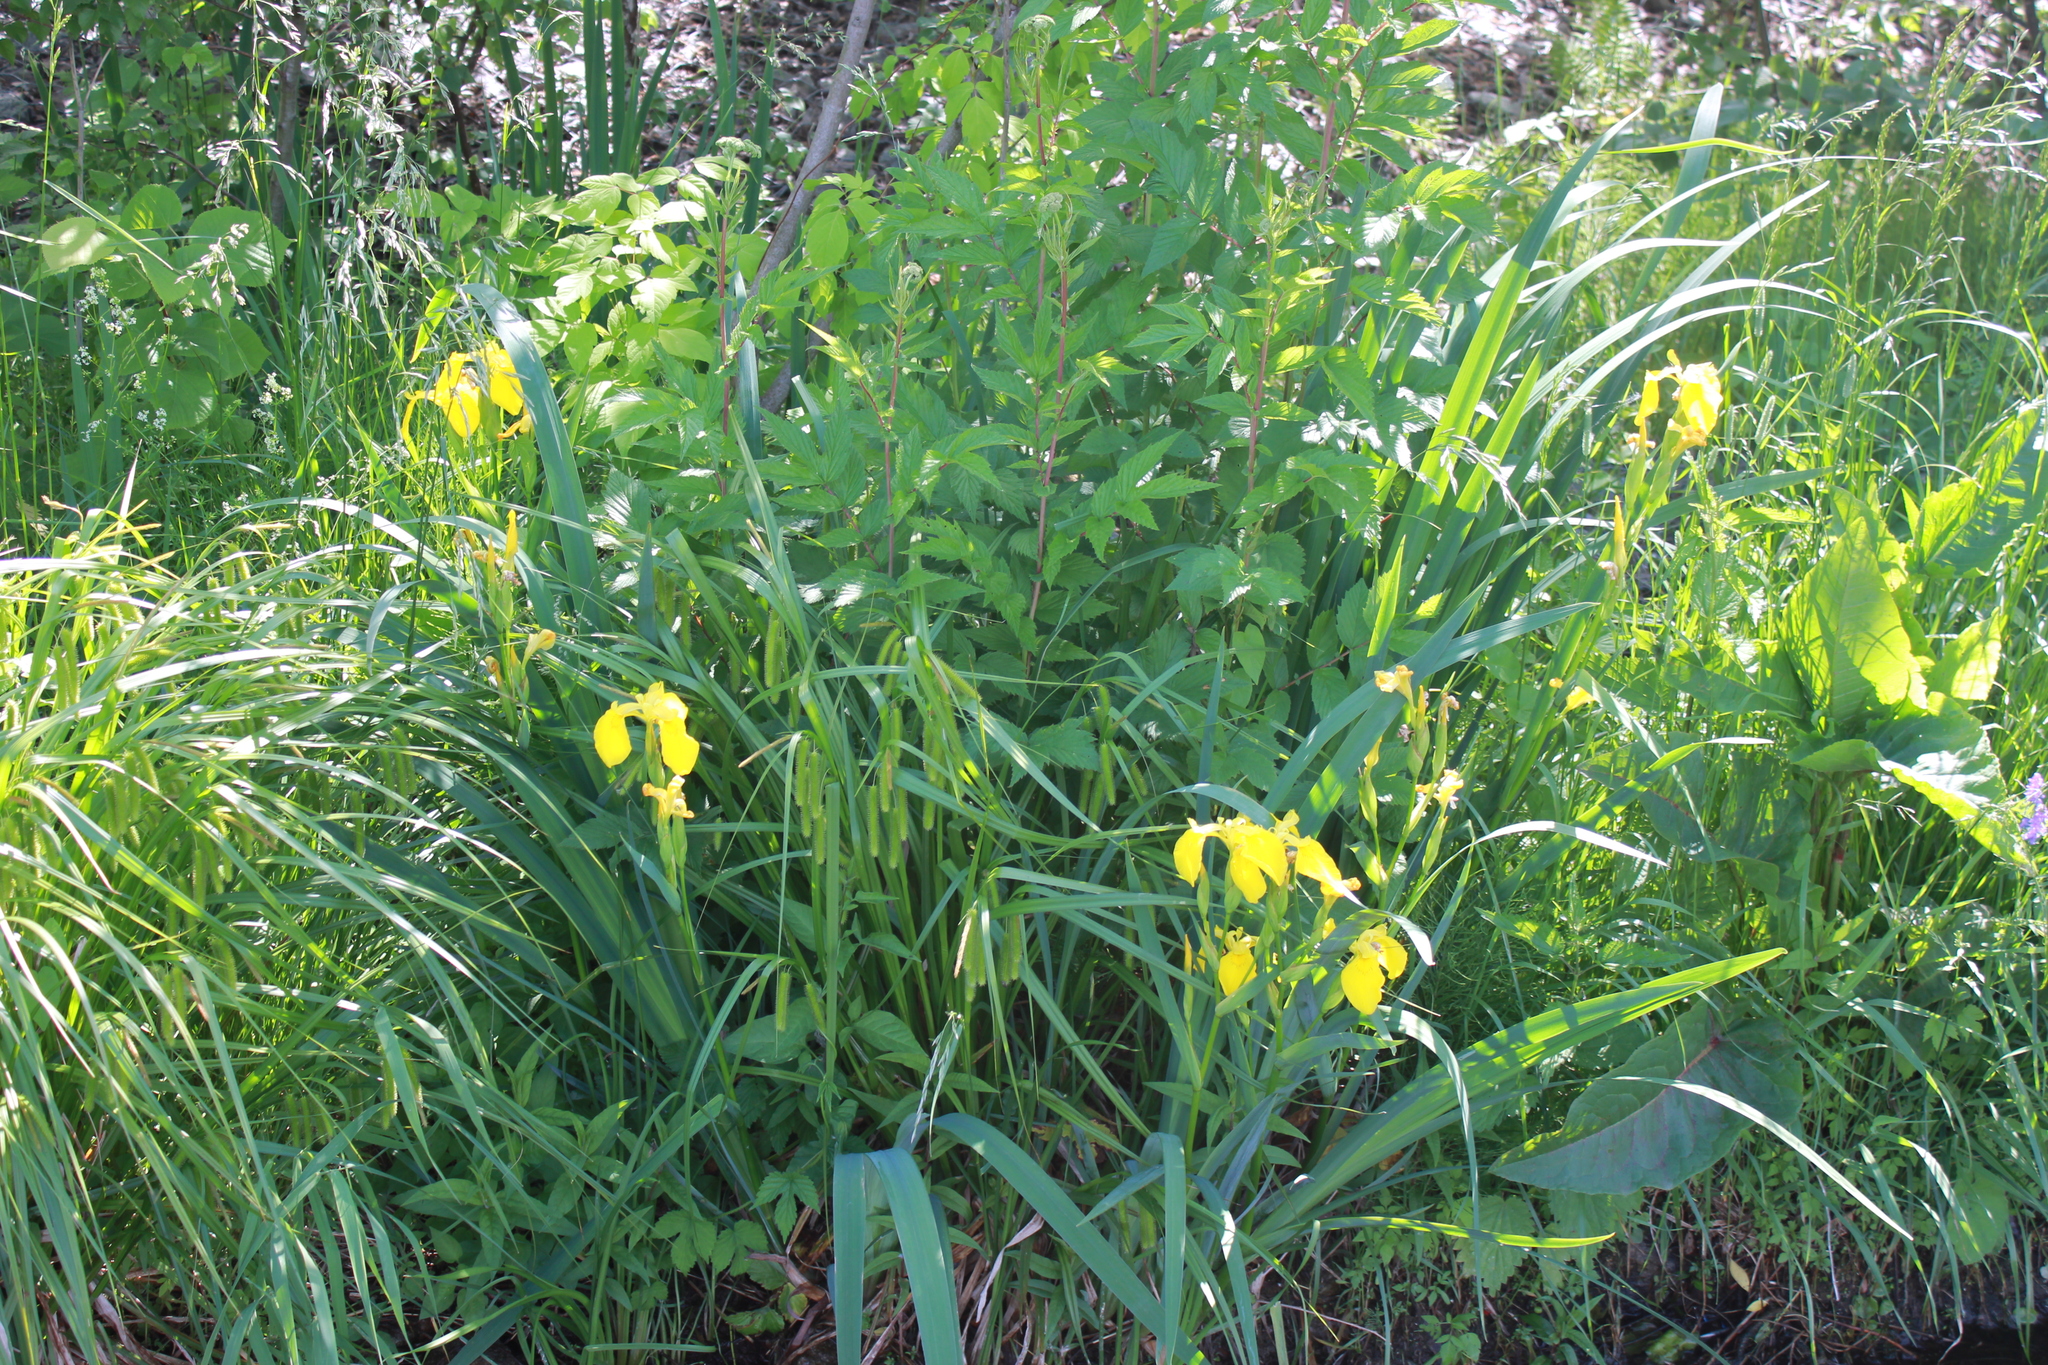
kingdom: Plantae
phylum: Tracheophyta
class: Liliopsida
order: Asparagales
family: Iridaceae
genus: Iris
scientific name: Iris pseudacorus
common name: Yellow flag
